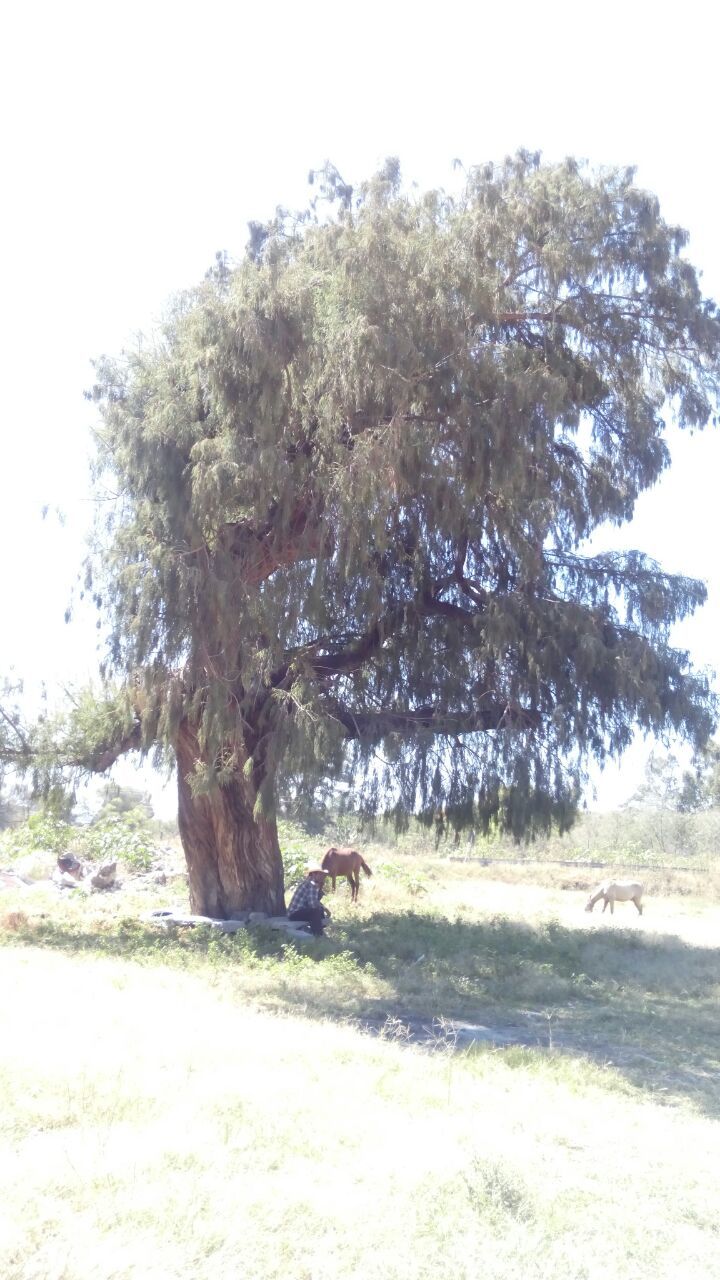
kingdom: Plantae
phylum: Tracheophyta
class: Pinopsida
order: Pinales
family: Cupressaceae
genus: Taxodium
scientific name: Taxodium mucronatum
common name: Montezume bald cypress
